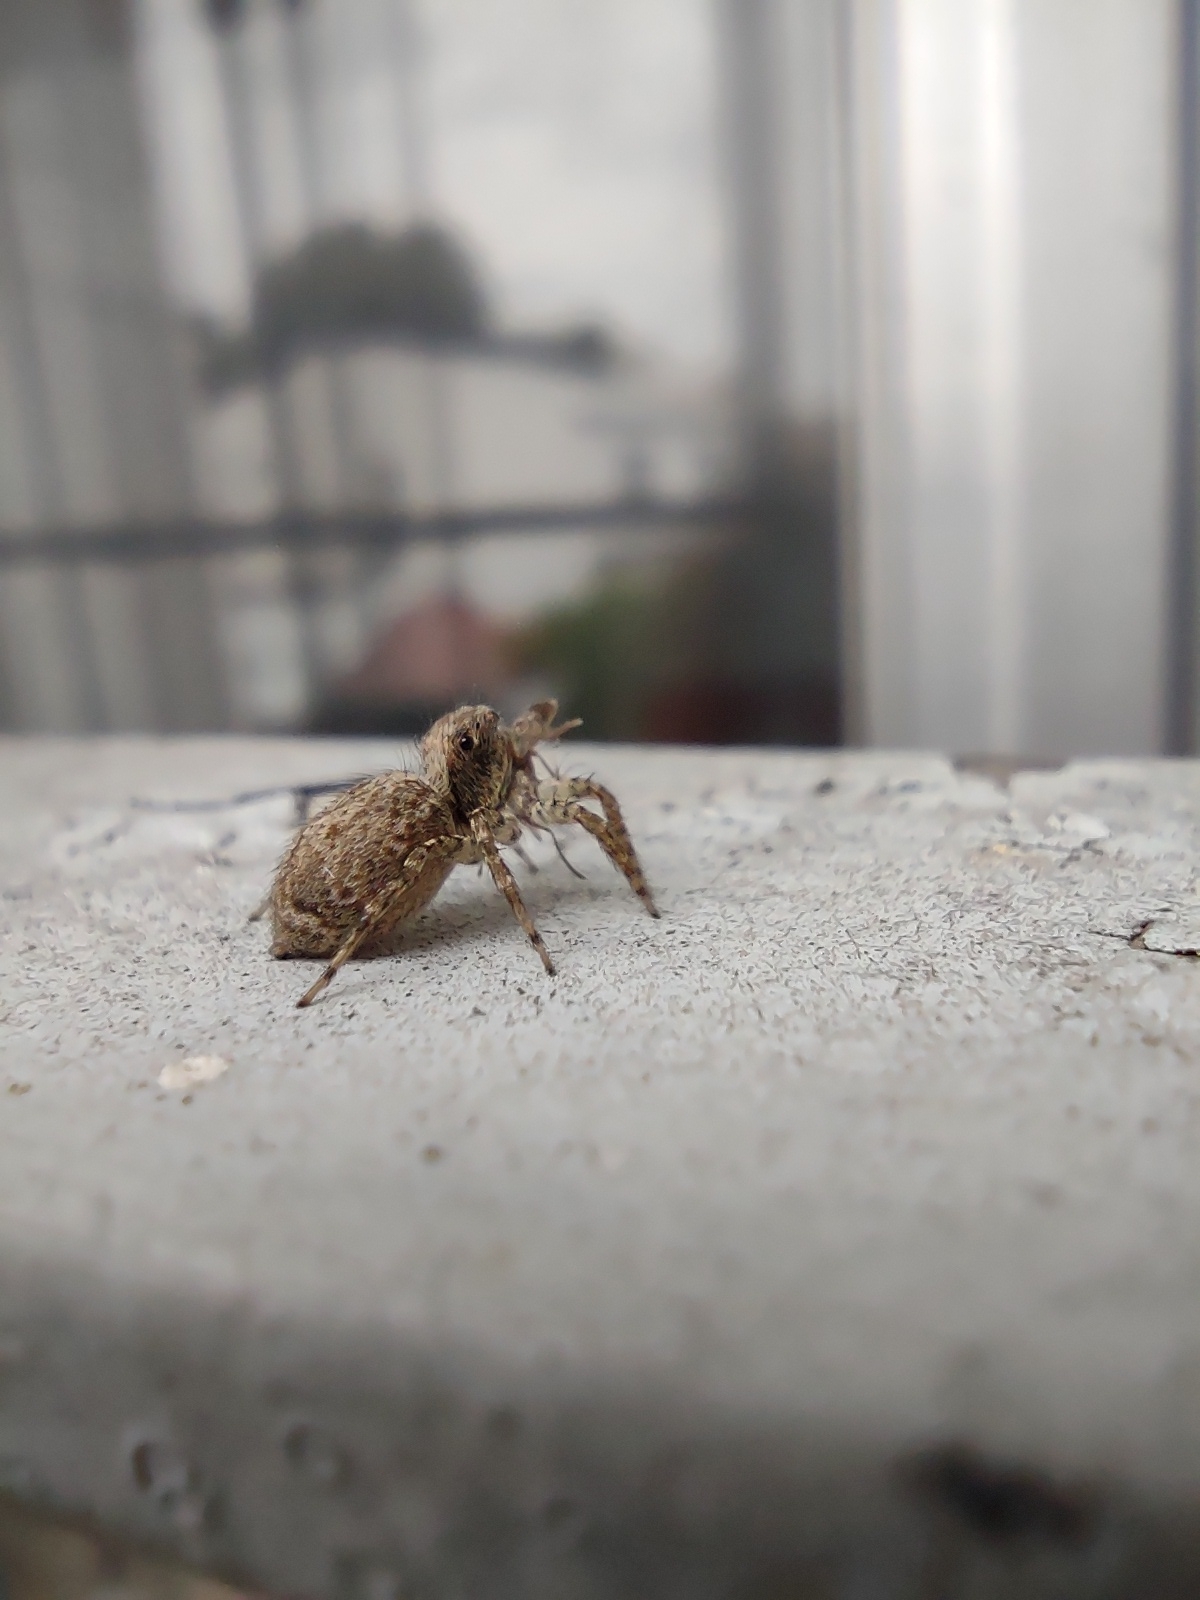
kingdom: Animalia
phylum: Arthropoda
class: Arachnida
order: Araneae
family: Salticidae
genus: Saitis
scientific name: Saitis variegatus
